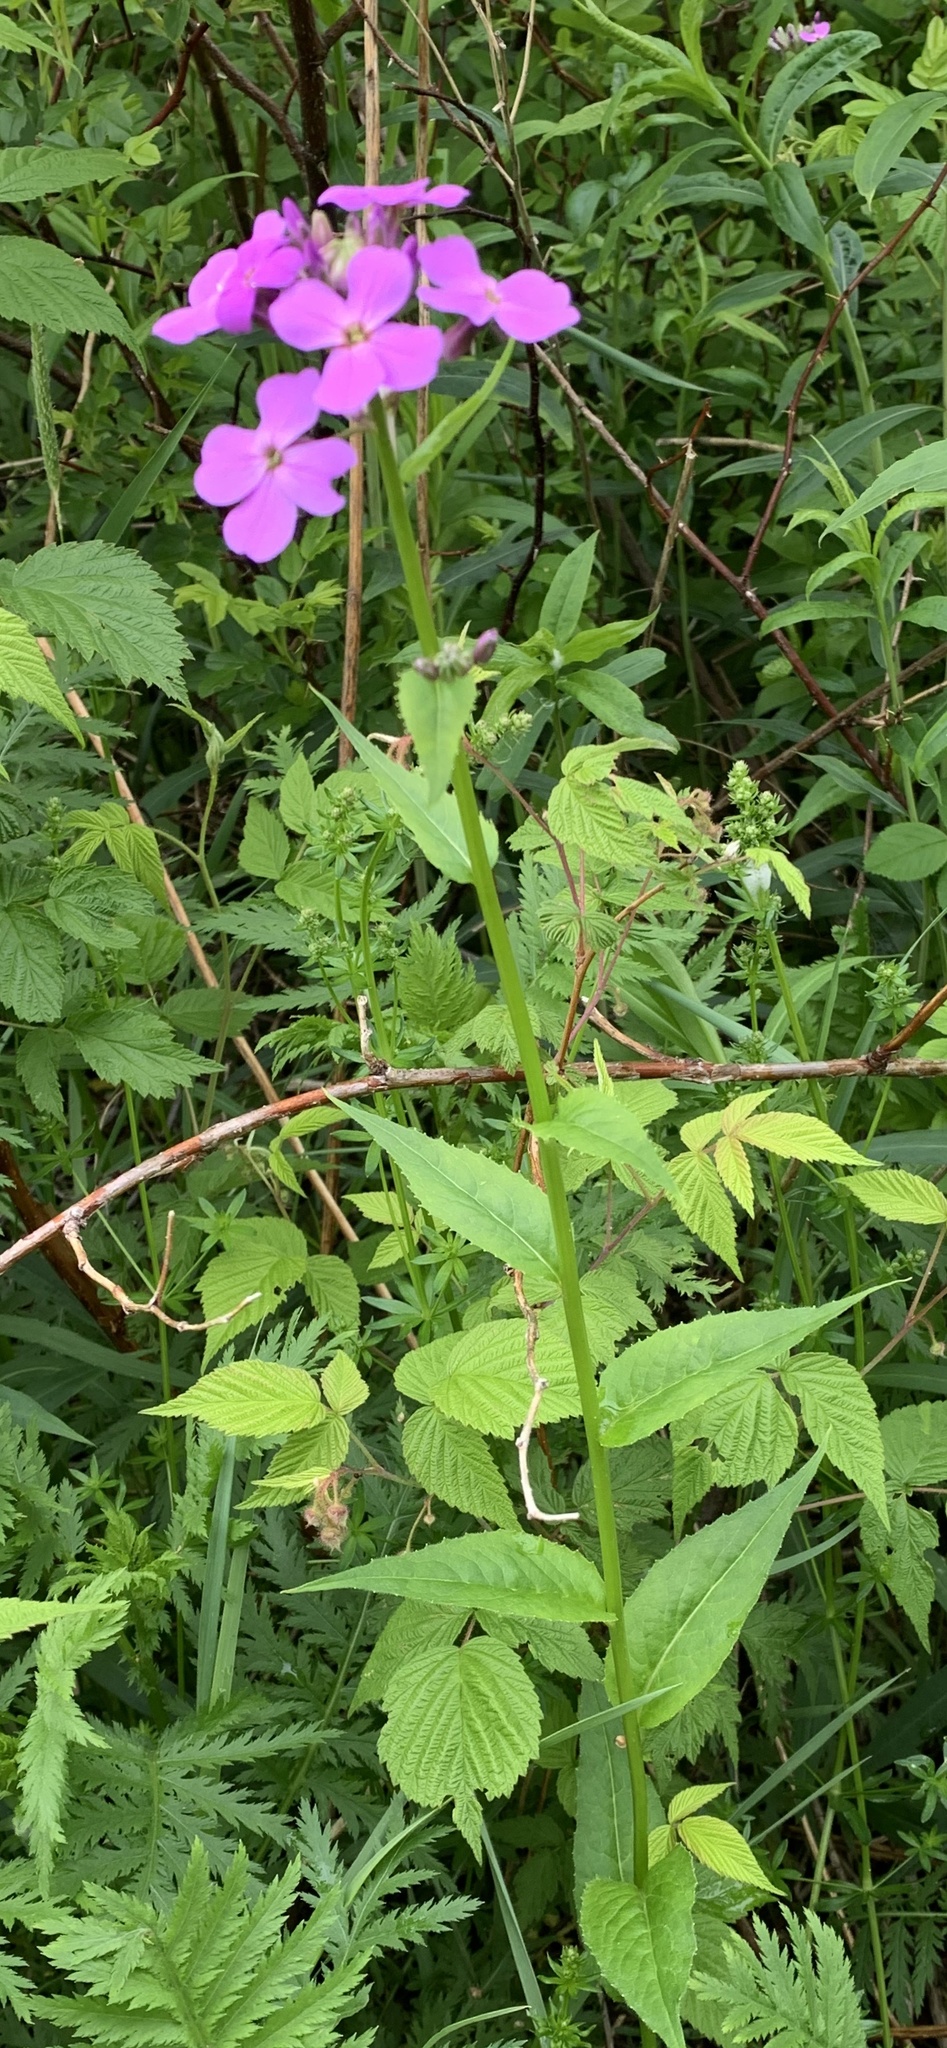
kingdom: Plantae
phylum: Tracheophyta
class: Magnoliopsida
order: Brassicales
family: Brassicaceae
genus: Hesperis
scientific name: Hesperis matronalis
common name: Dame's-violet
